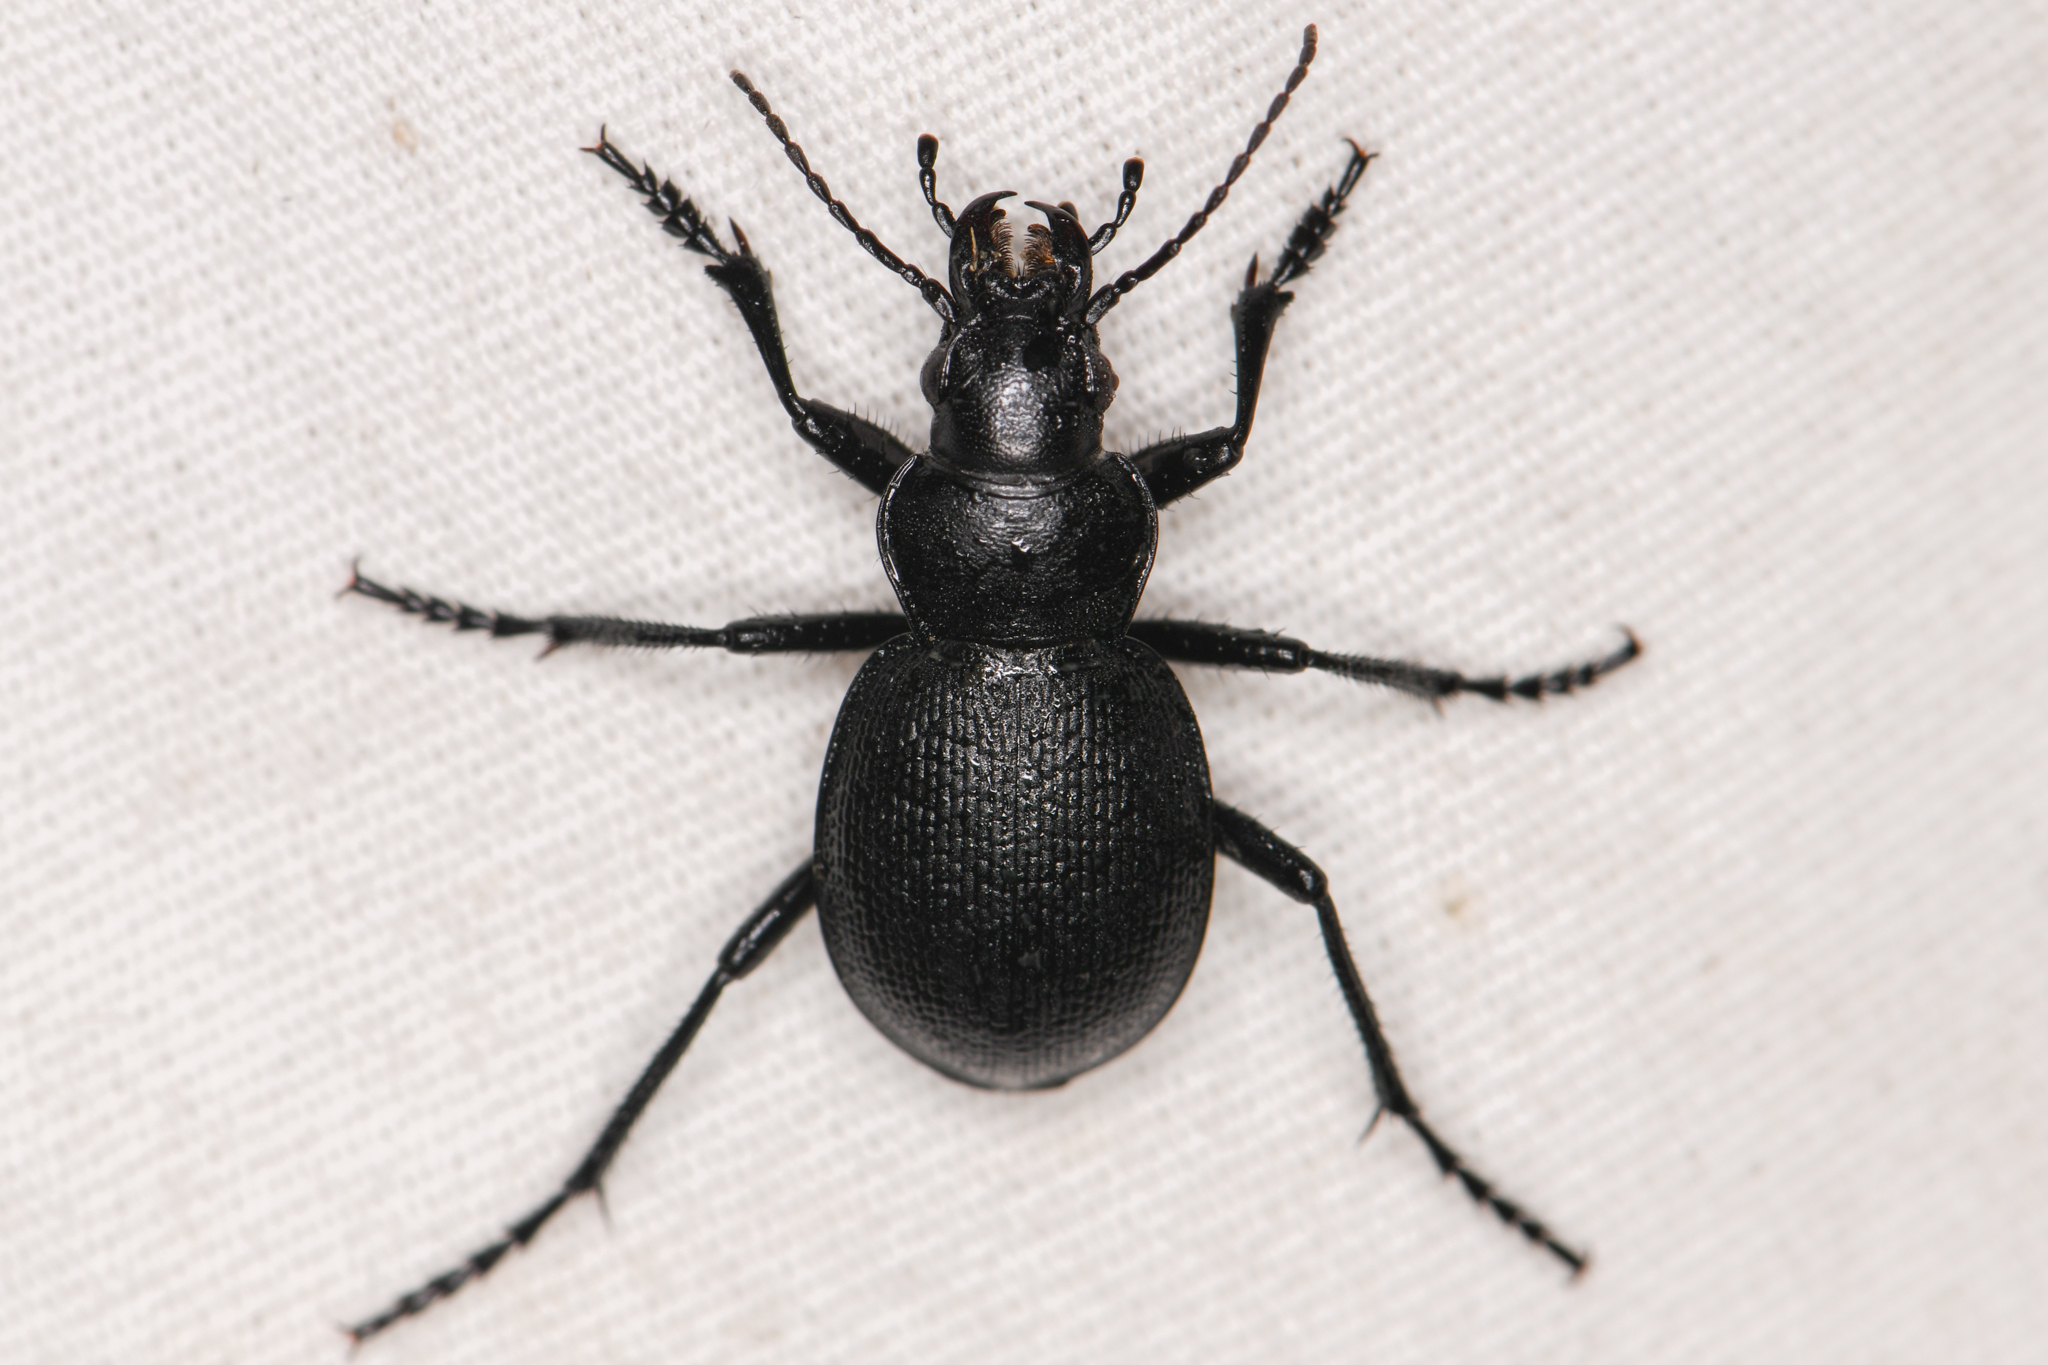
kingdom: Animalia
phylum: Arthropoda
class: Insecta
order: Coleoptera
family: Carabidae
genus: Calosoma
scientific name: Calosoma luxatum
